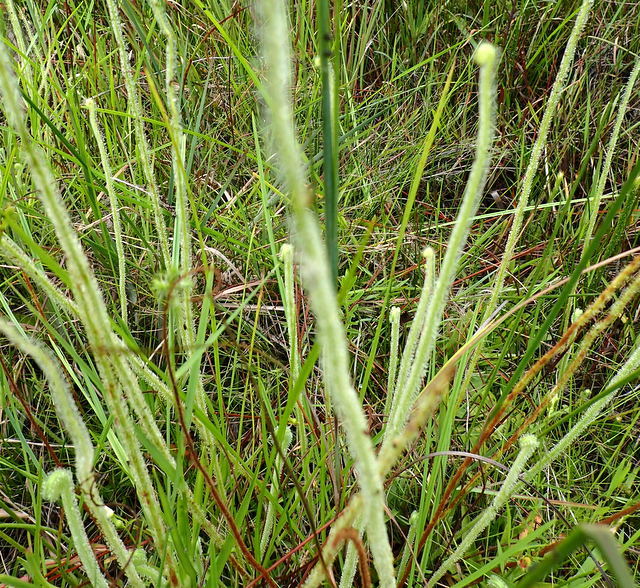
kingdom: Plantae
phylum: Tracheophyta
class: Magnoliopsida
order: Caryophyllales
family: Droseraceae
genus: Drosera
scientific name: Drosera filiformis
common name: Dew-thread
